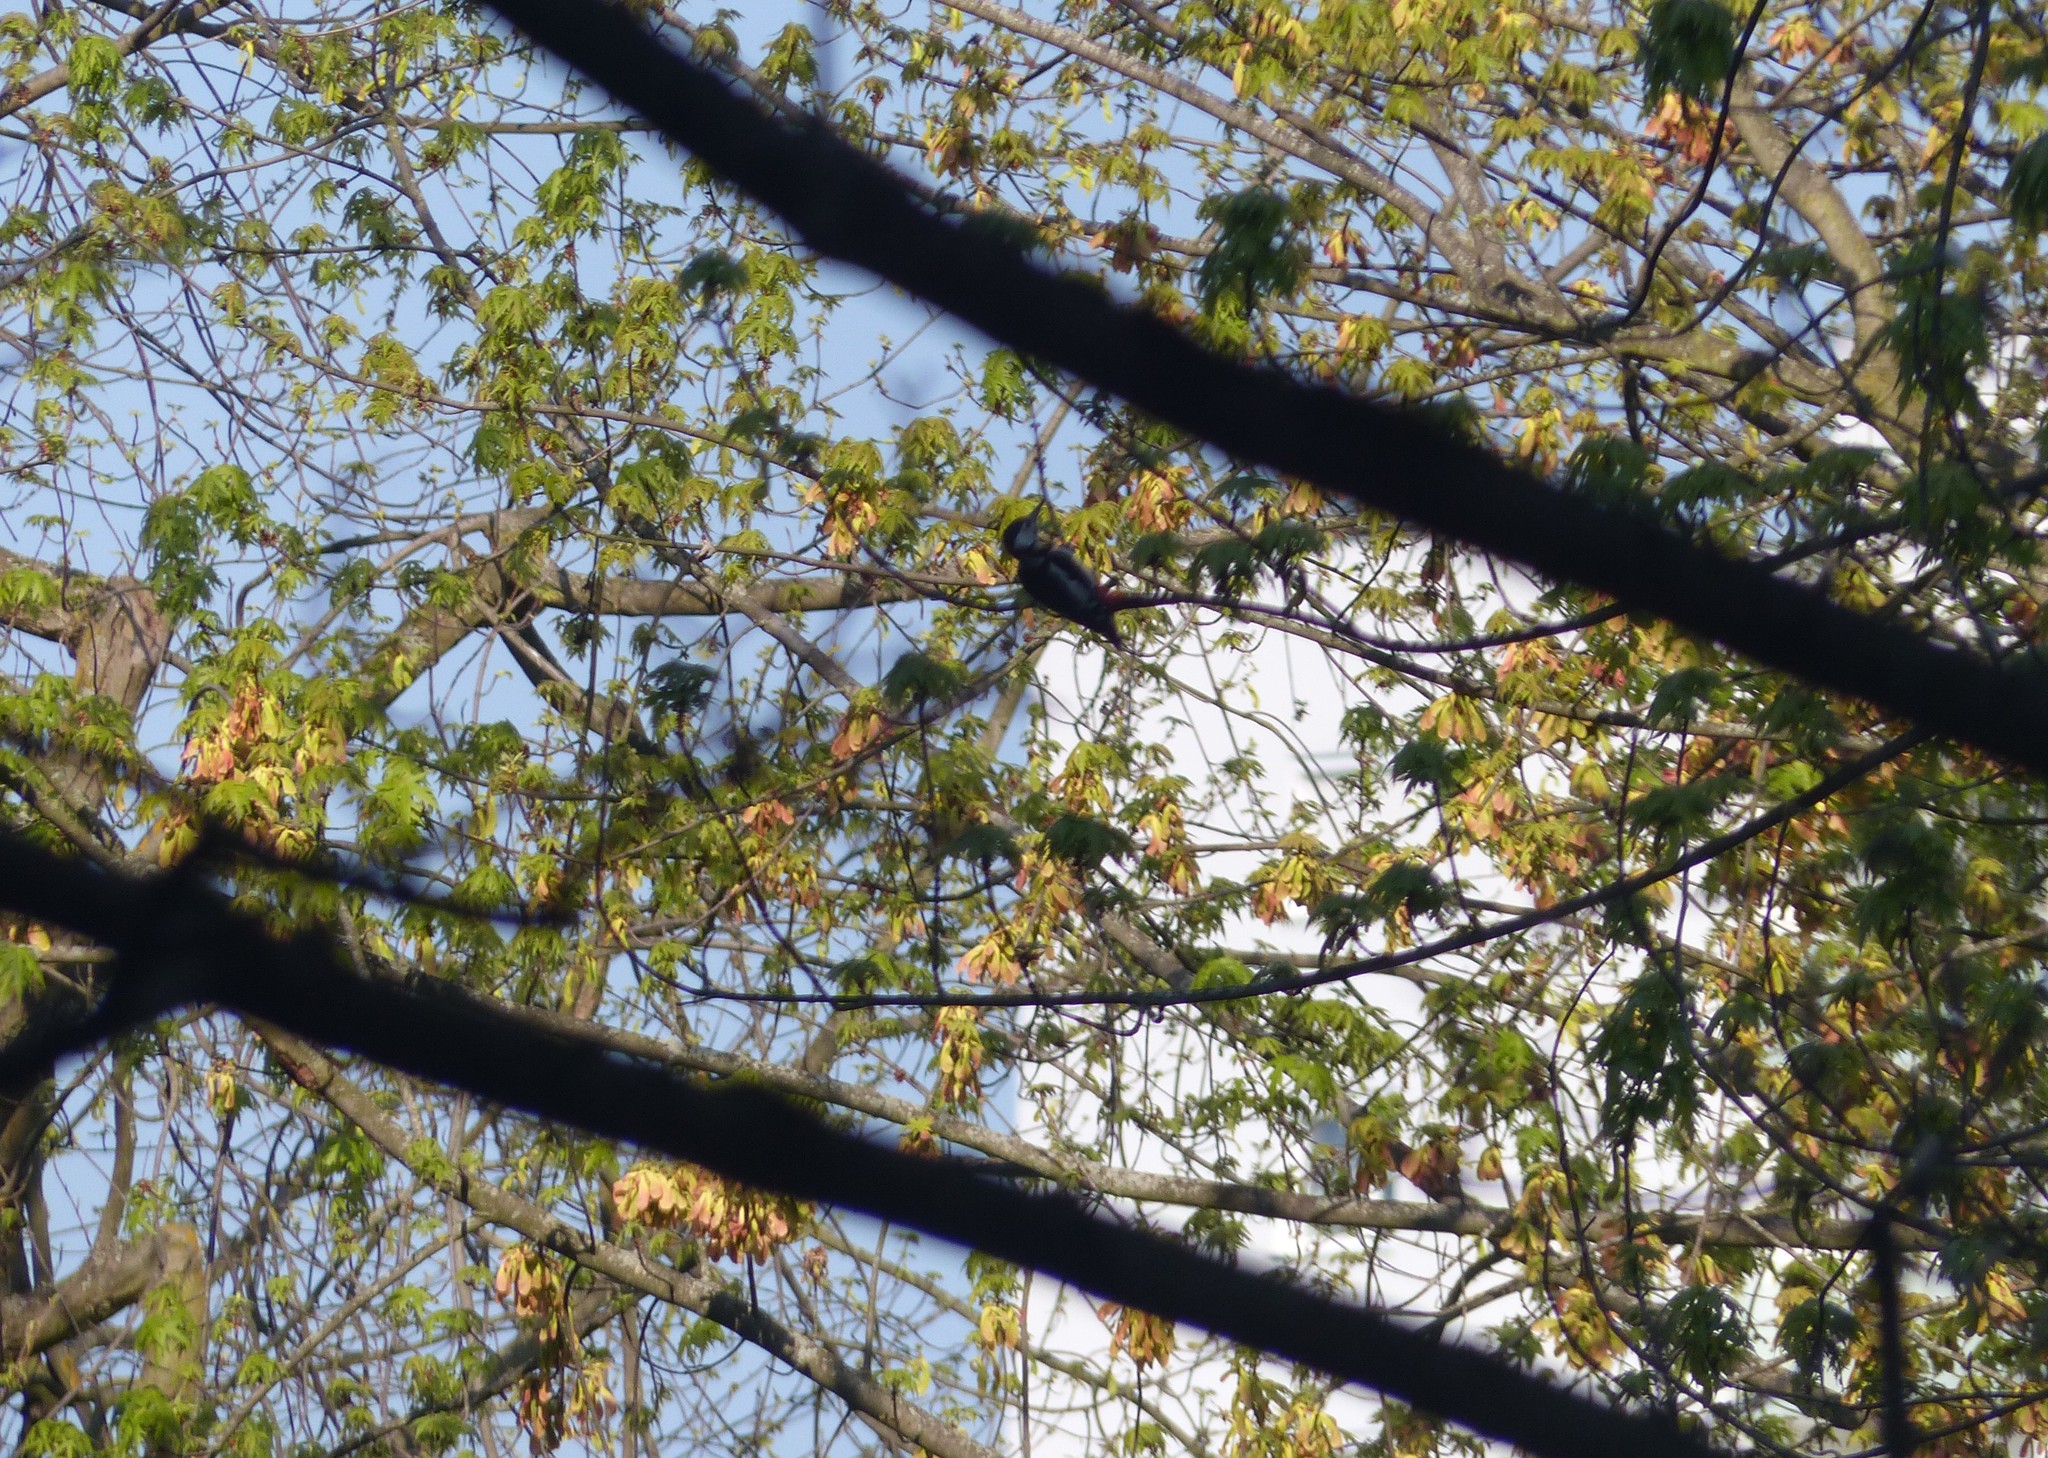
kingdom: Animalia
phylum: Chordata
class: Aves
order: Piciformes
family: Picidae
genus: Dendrocopos
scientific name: Dendrocopos major
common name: Great spotted woodpecker
